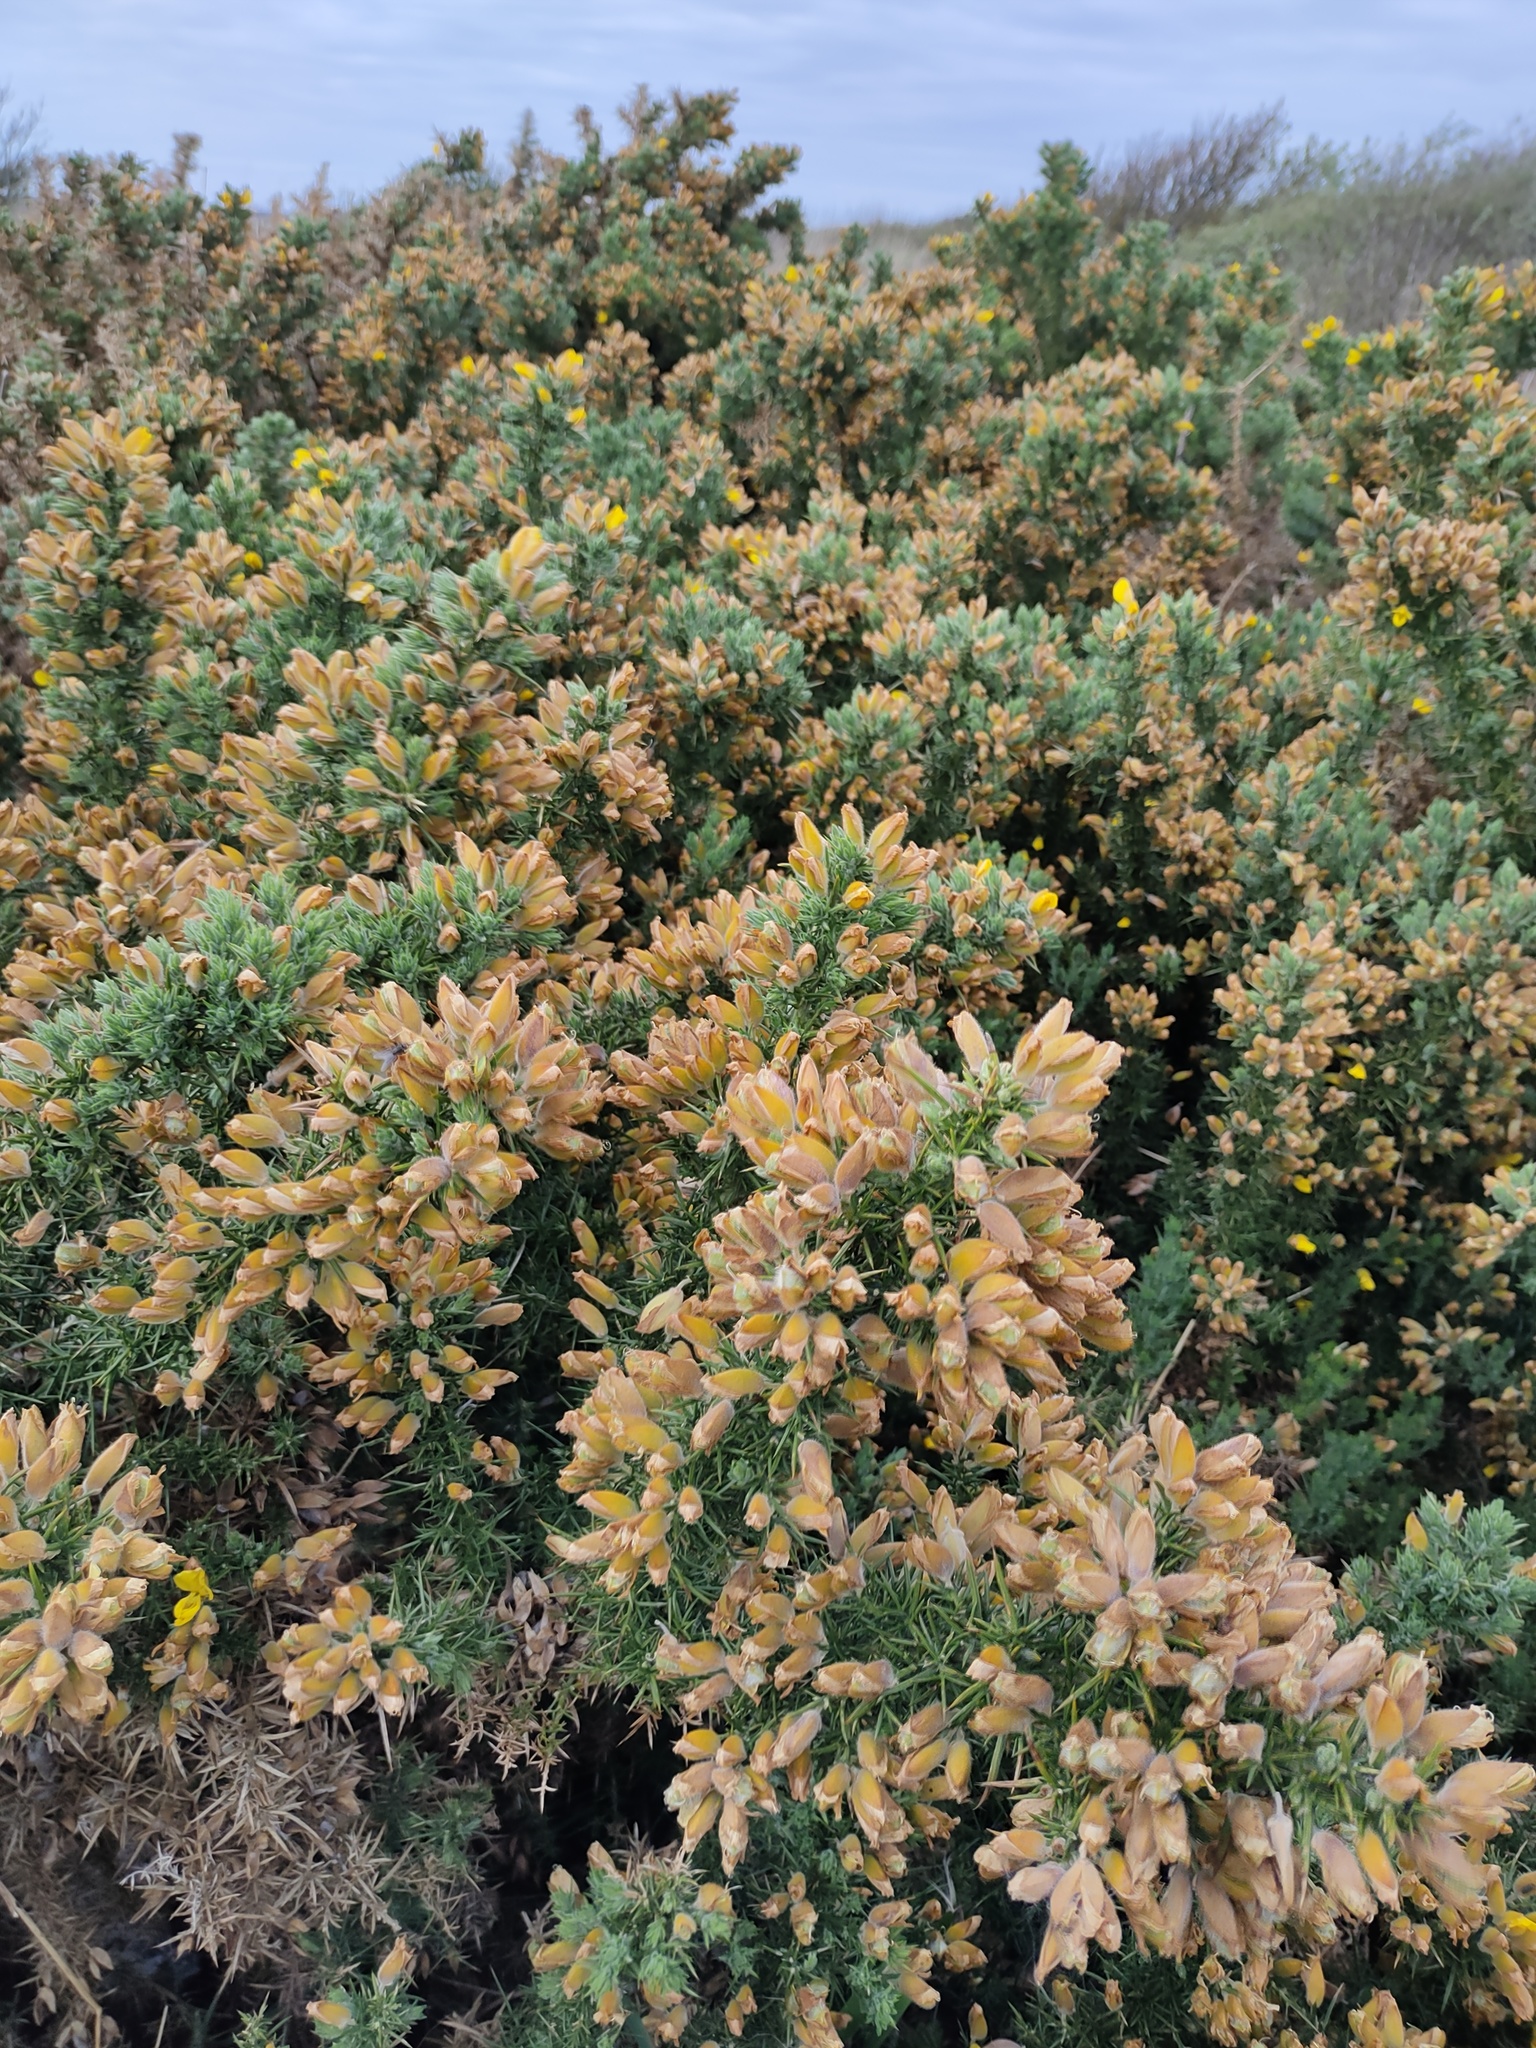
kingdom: Plantae
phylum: Tracheophyta
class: Magnoliopsida
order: Fabales
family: Fabaceae
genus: Ulex
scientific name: Ulex europaeus
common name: Common gorse
